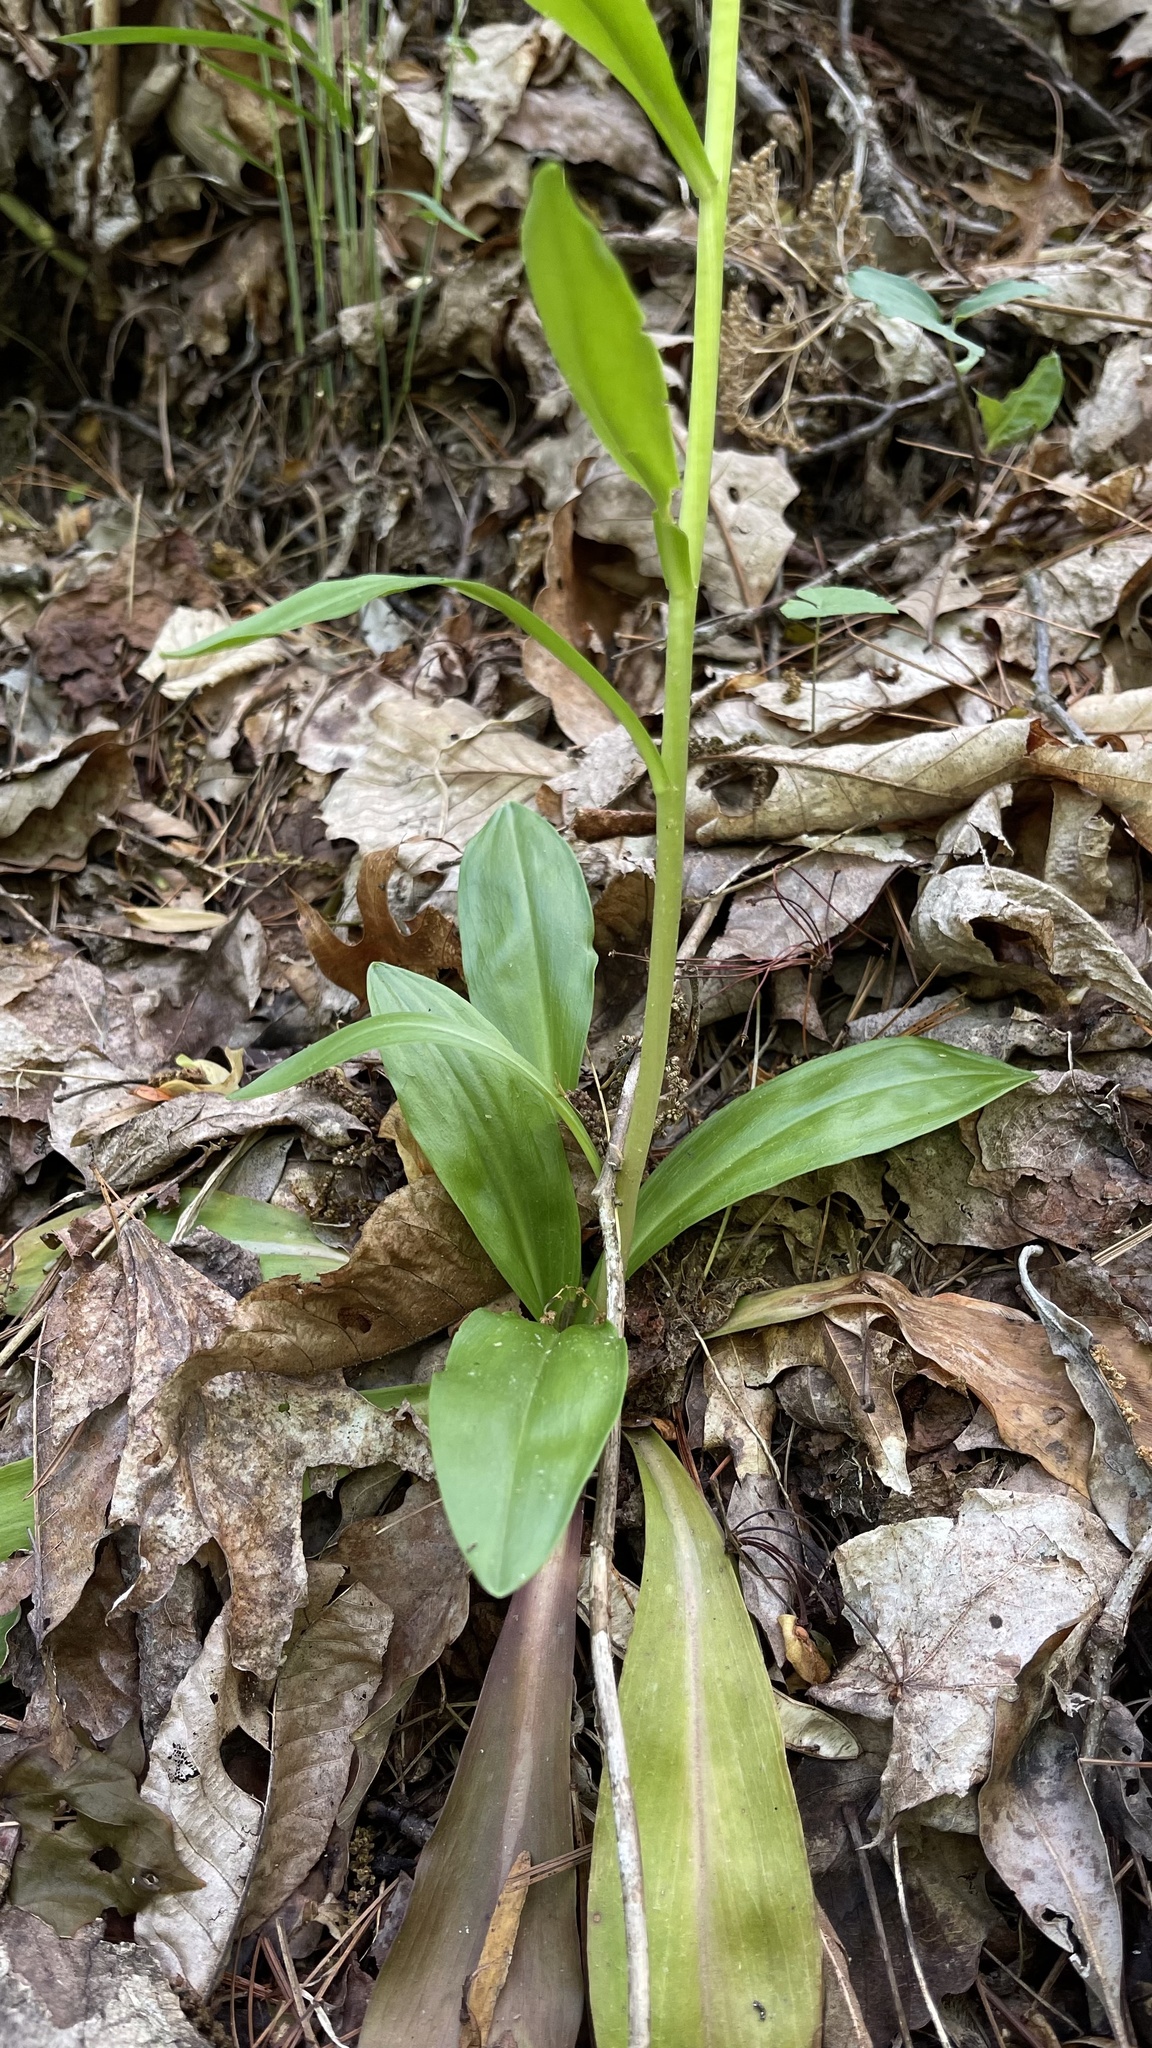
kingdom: Plantae
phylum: Tracheophyta
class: Liliopsida
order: Liliales
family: Melanthiaceae
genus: Chamaelirium
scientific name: Chamaelirium luteum
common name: Fairy-wand
